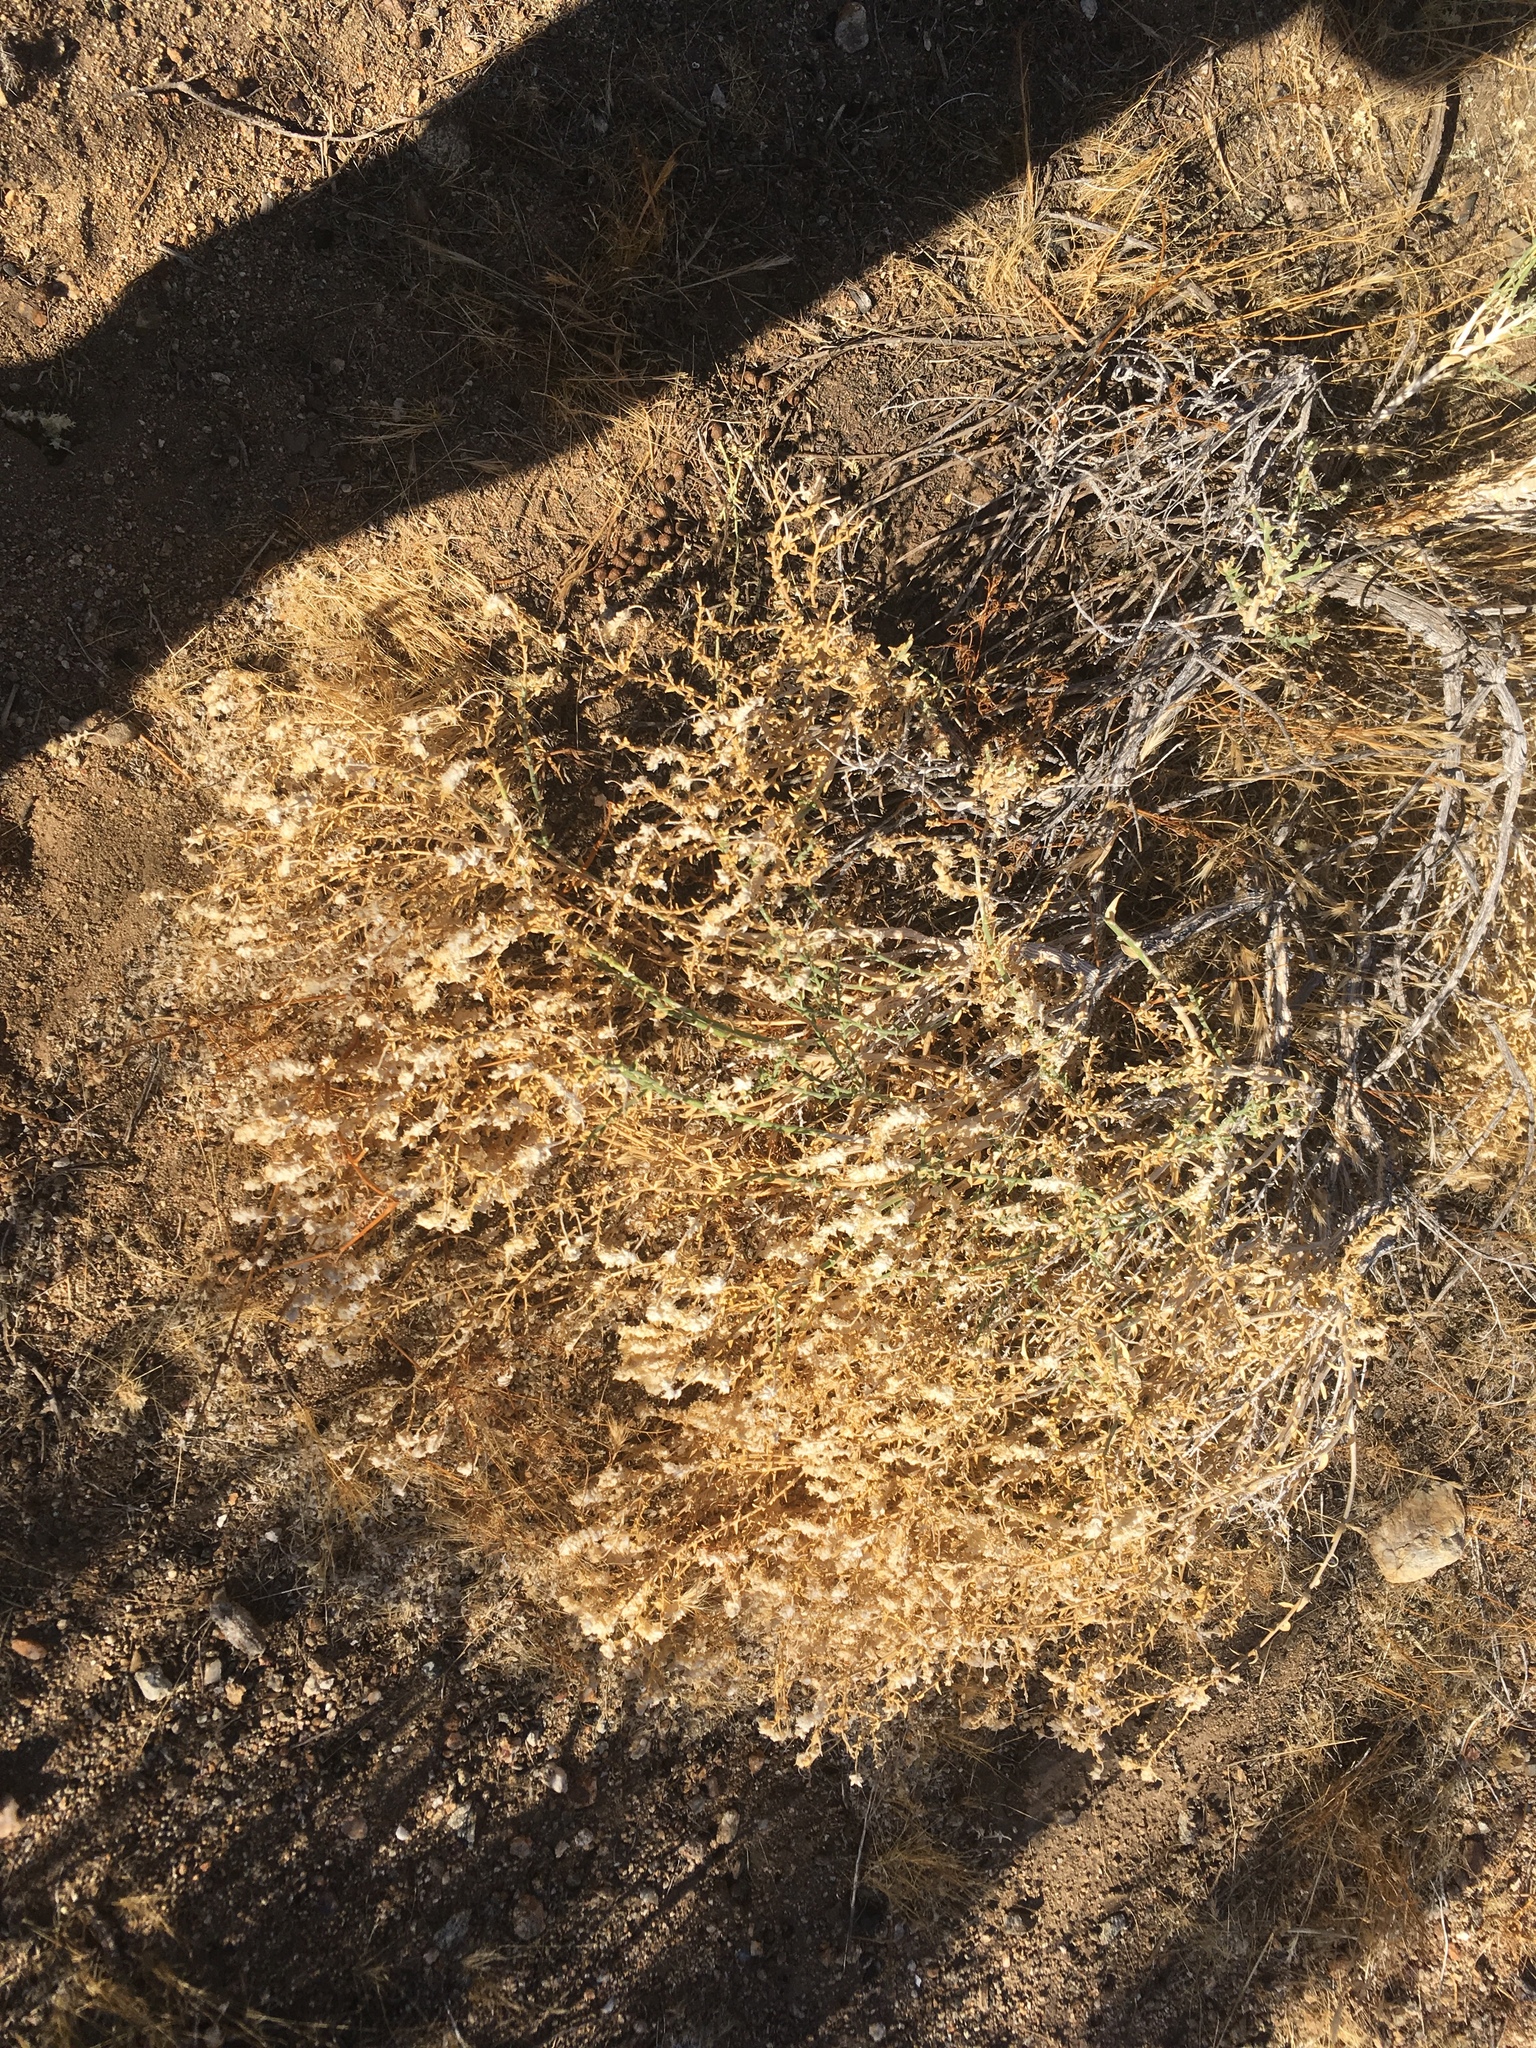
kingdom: Plantae
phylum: Tracheophyta
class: Magnoliopsida
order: Cornales
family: Loasaceae
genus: Petalonyx
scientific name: Petalonyx thurberi
